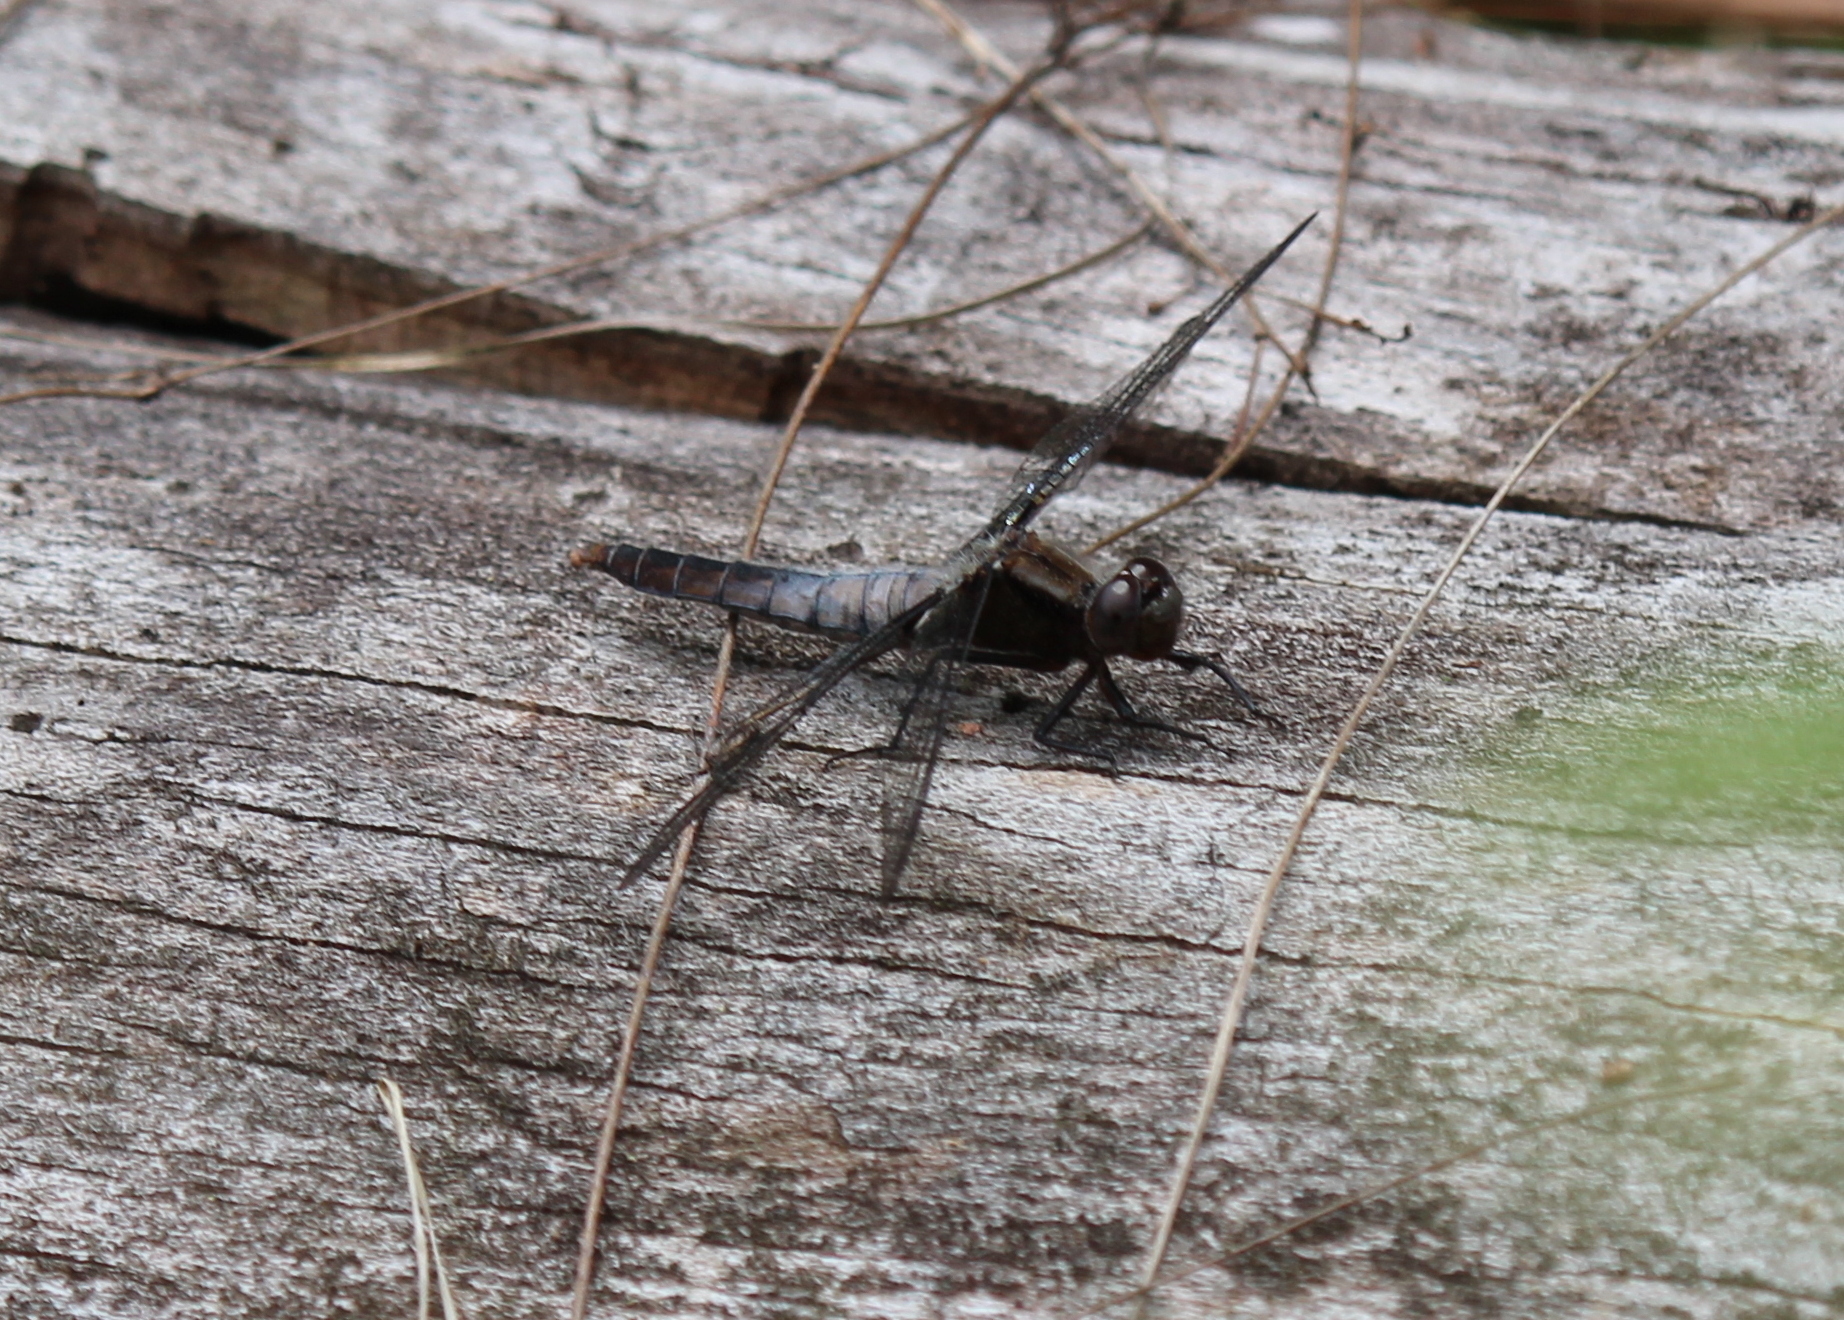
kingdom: Animalia
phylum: Arthropoda
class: Insecta
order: Odonata
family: Libellulidae
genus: Ladona
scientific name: Ladona julia
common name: Chalk-fronted corporal
